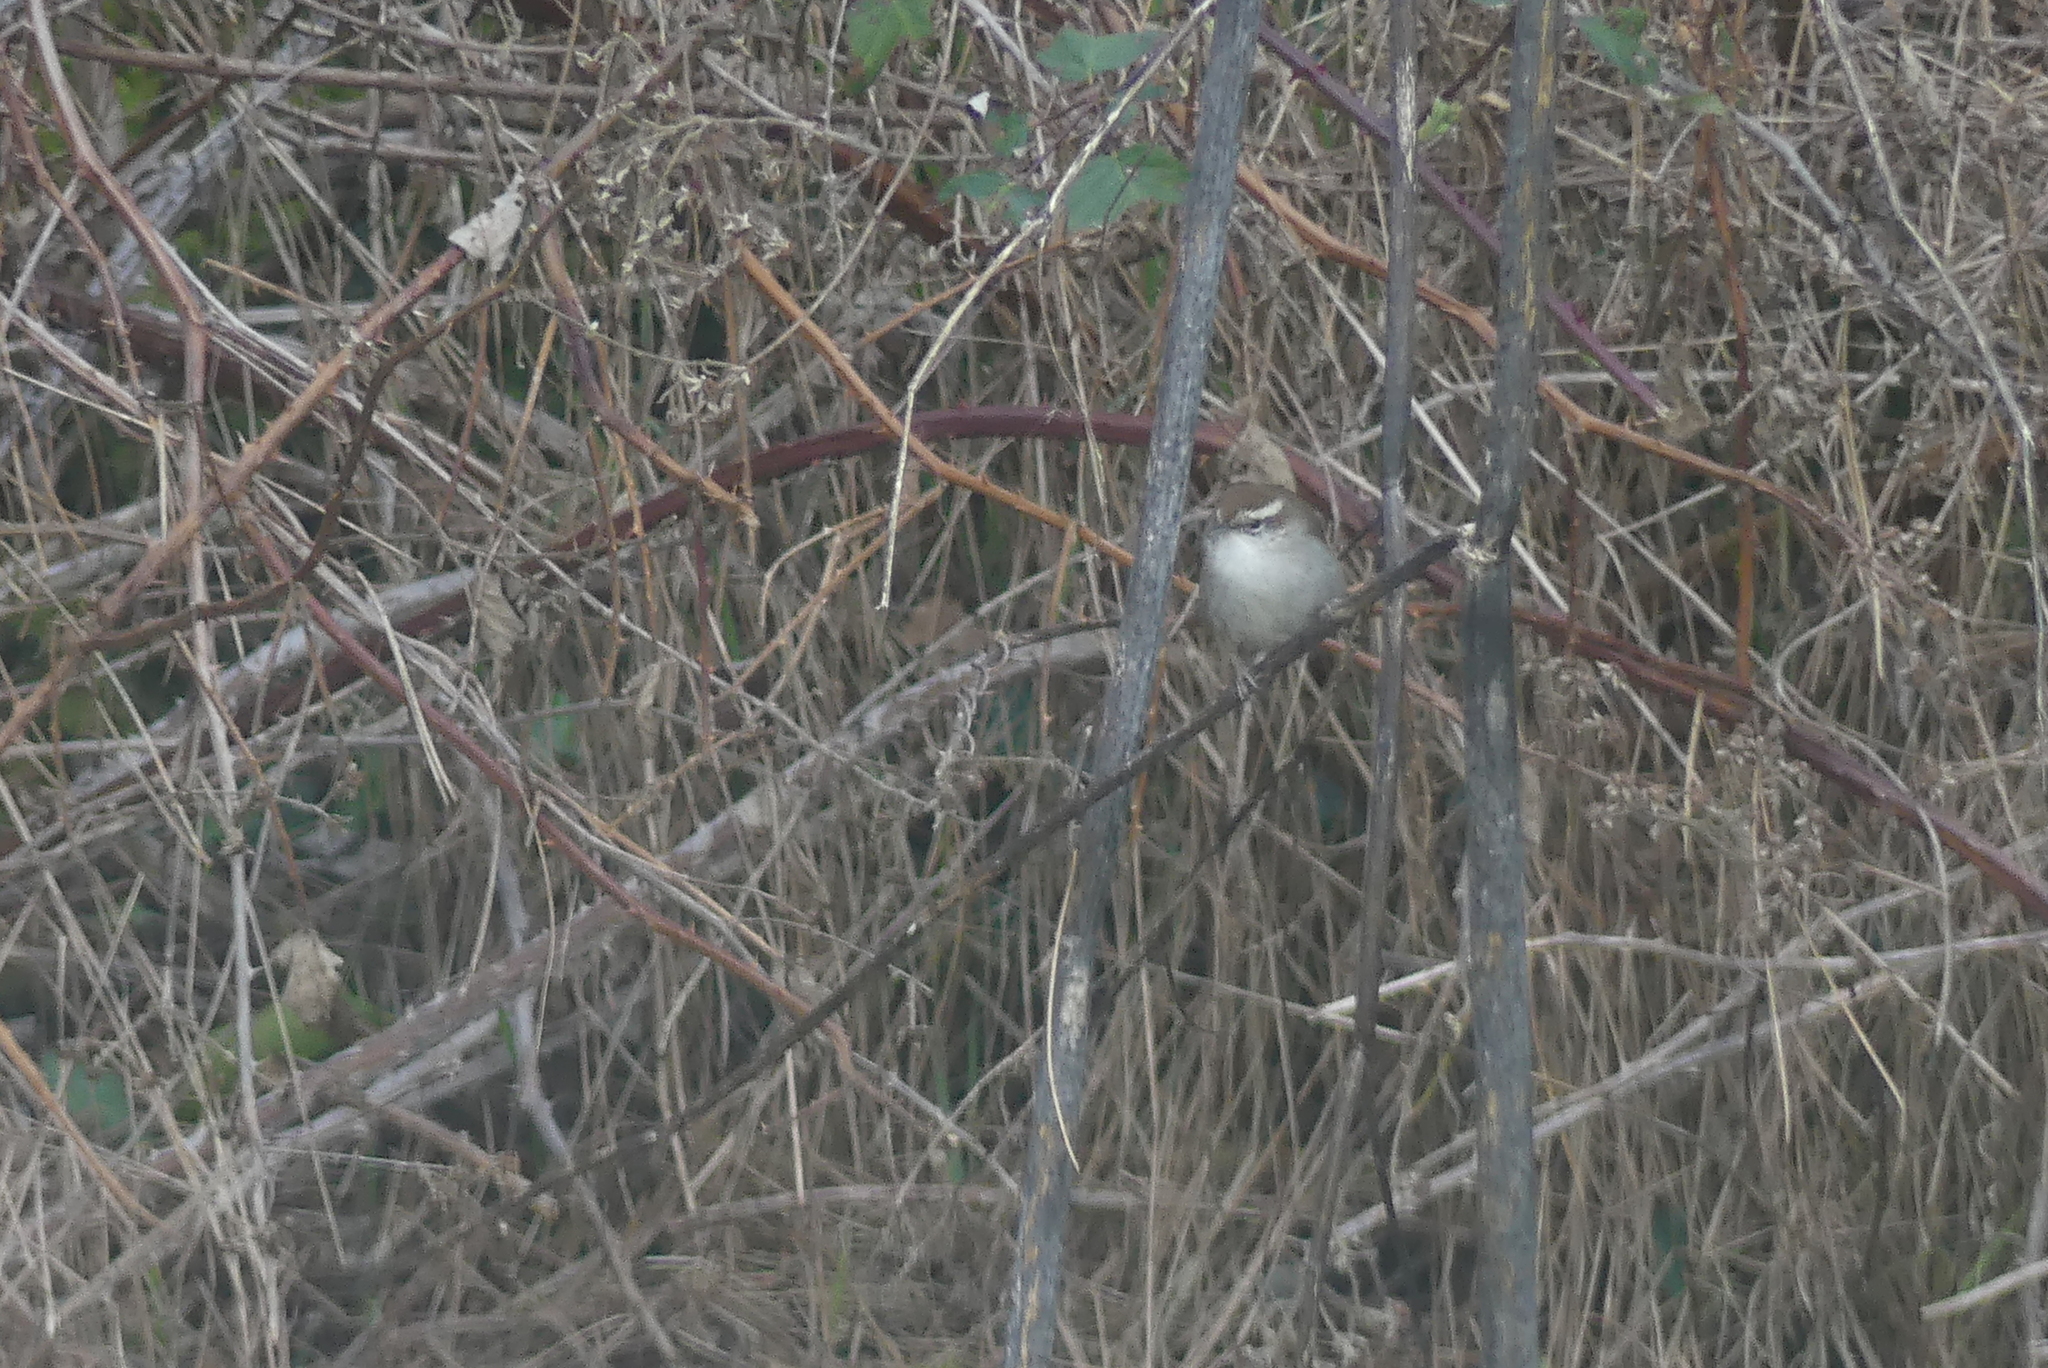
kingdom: Animalia
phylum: Chordata
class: Aves
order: Passeriformes
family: Troglodytidae
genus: Thryomanes
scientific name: Thryomanes bewickii
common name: Bewick's wren
